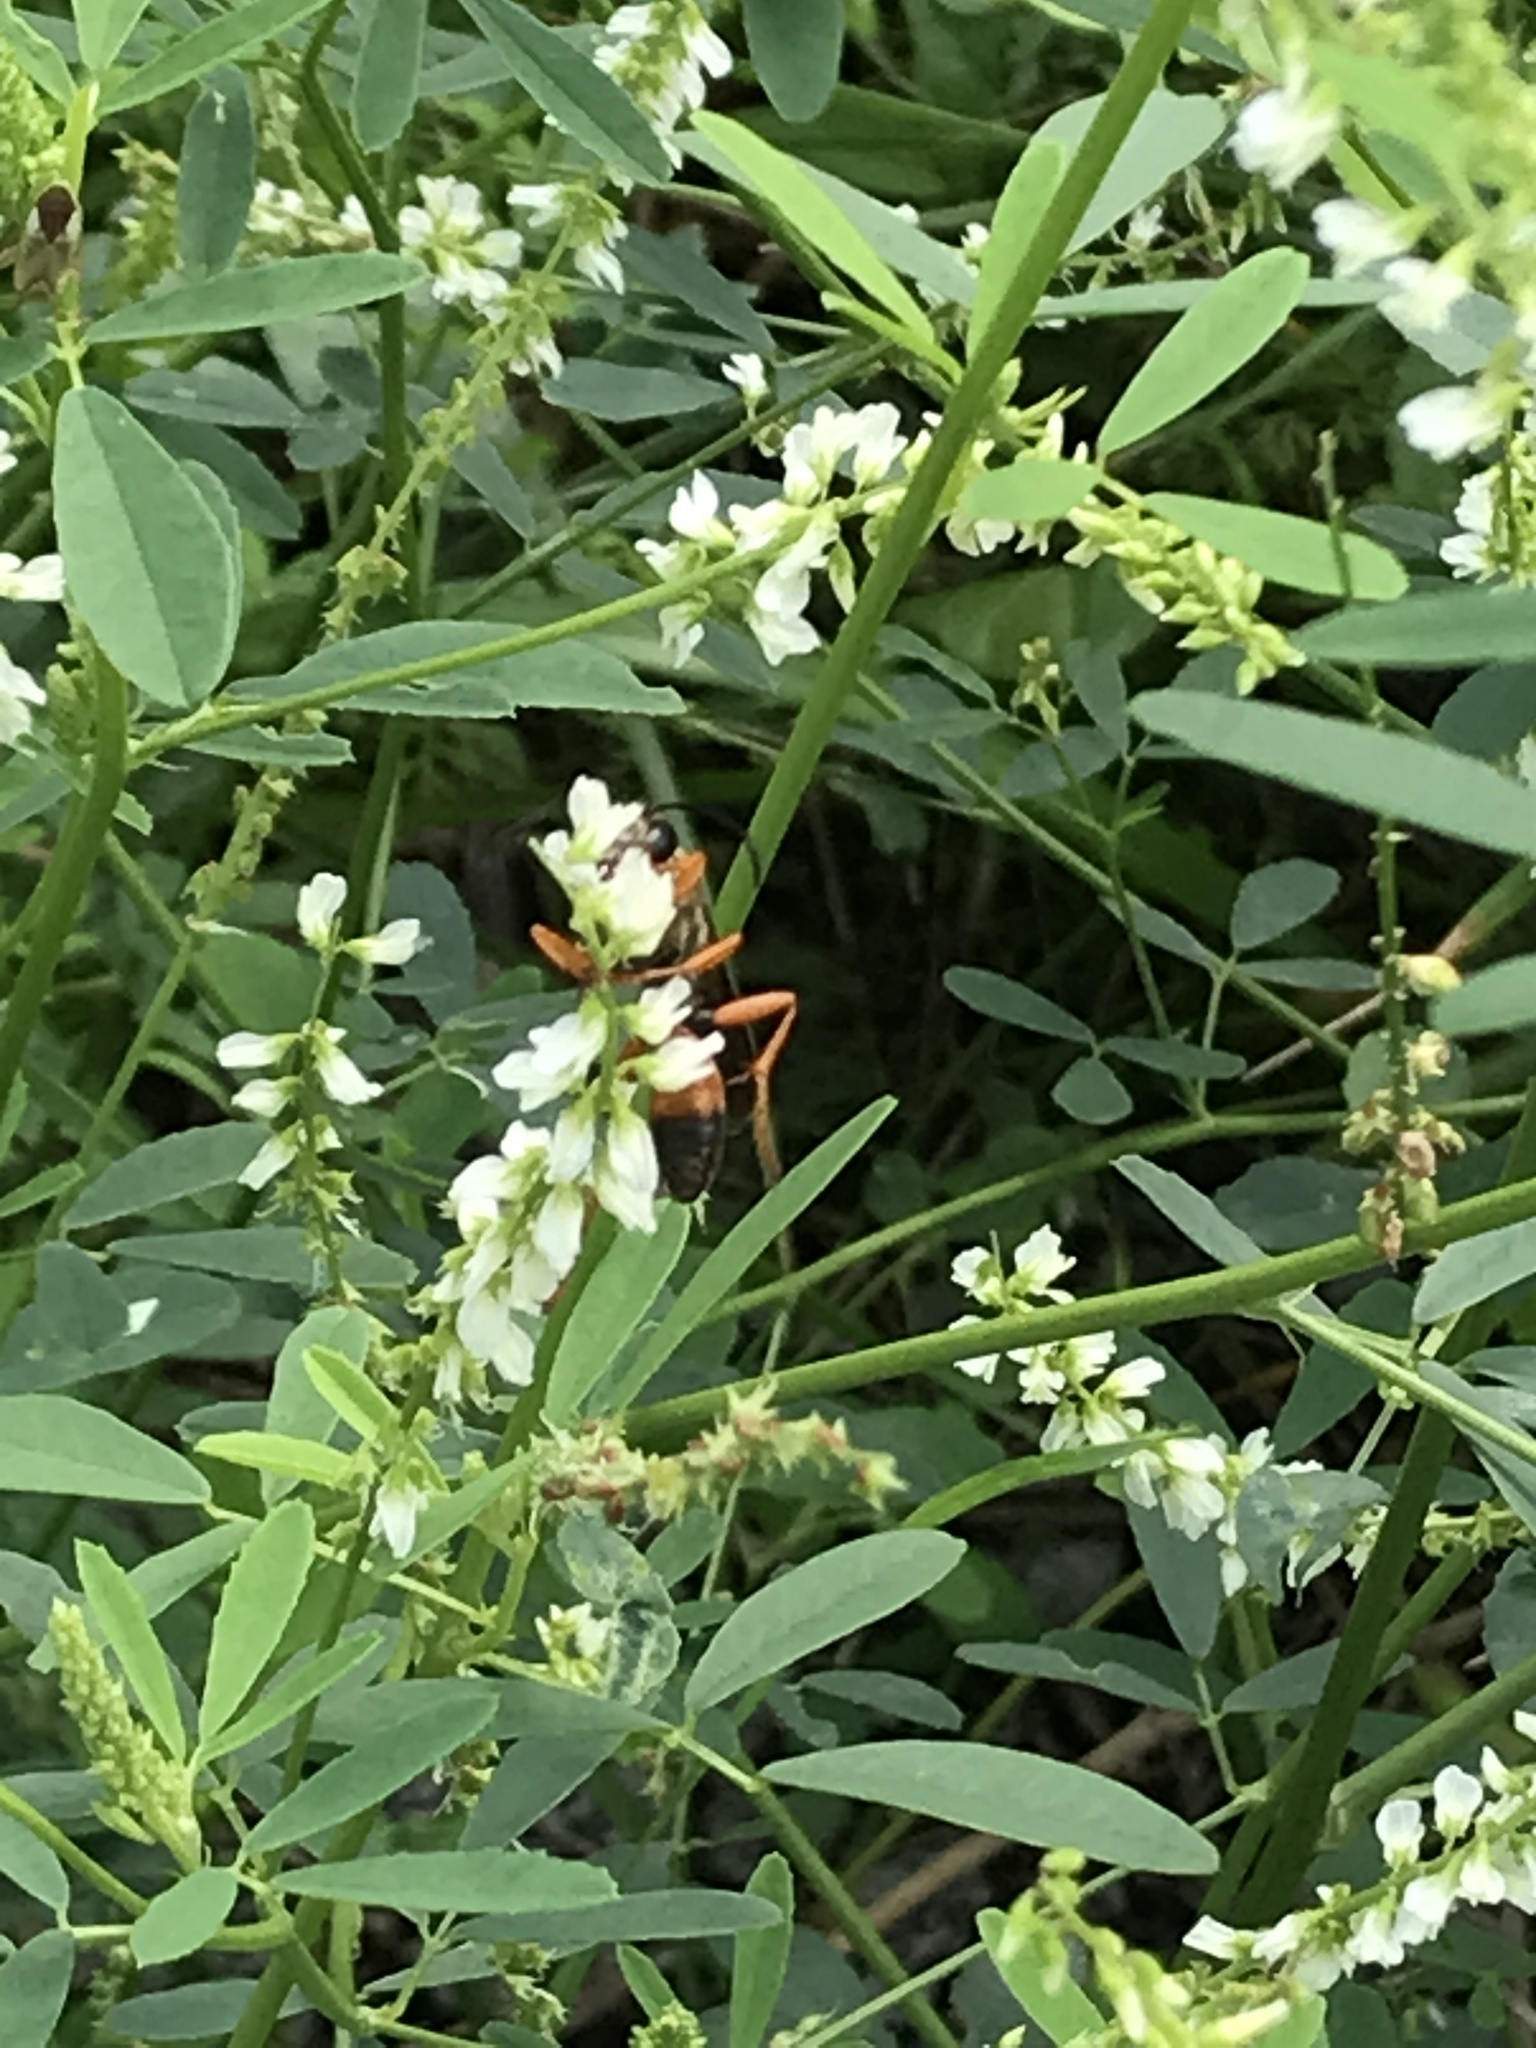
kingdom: Animalia
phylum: Arthropoda
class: Insecta
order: Hymenoptera
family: Sphecidae
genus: Sphex
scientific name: Sphex ichneumoneus
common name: Great golden digger wasp
